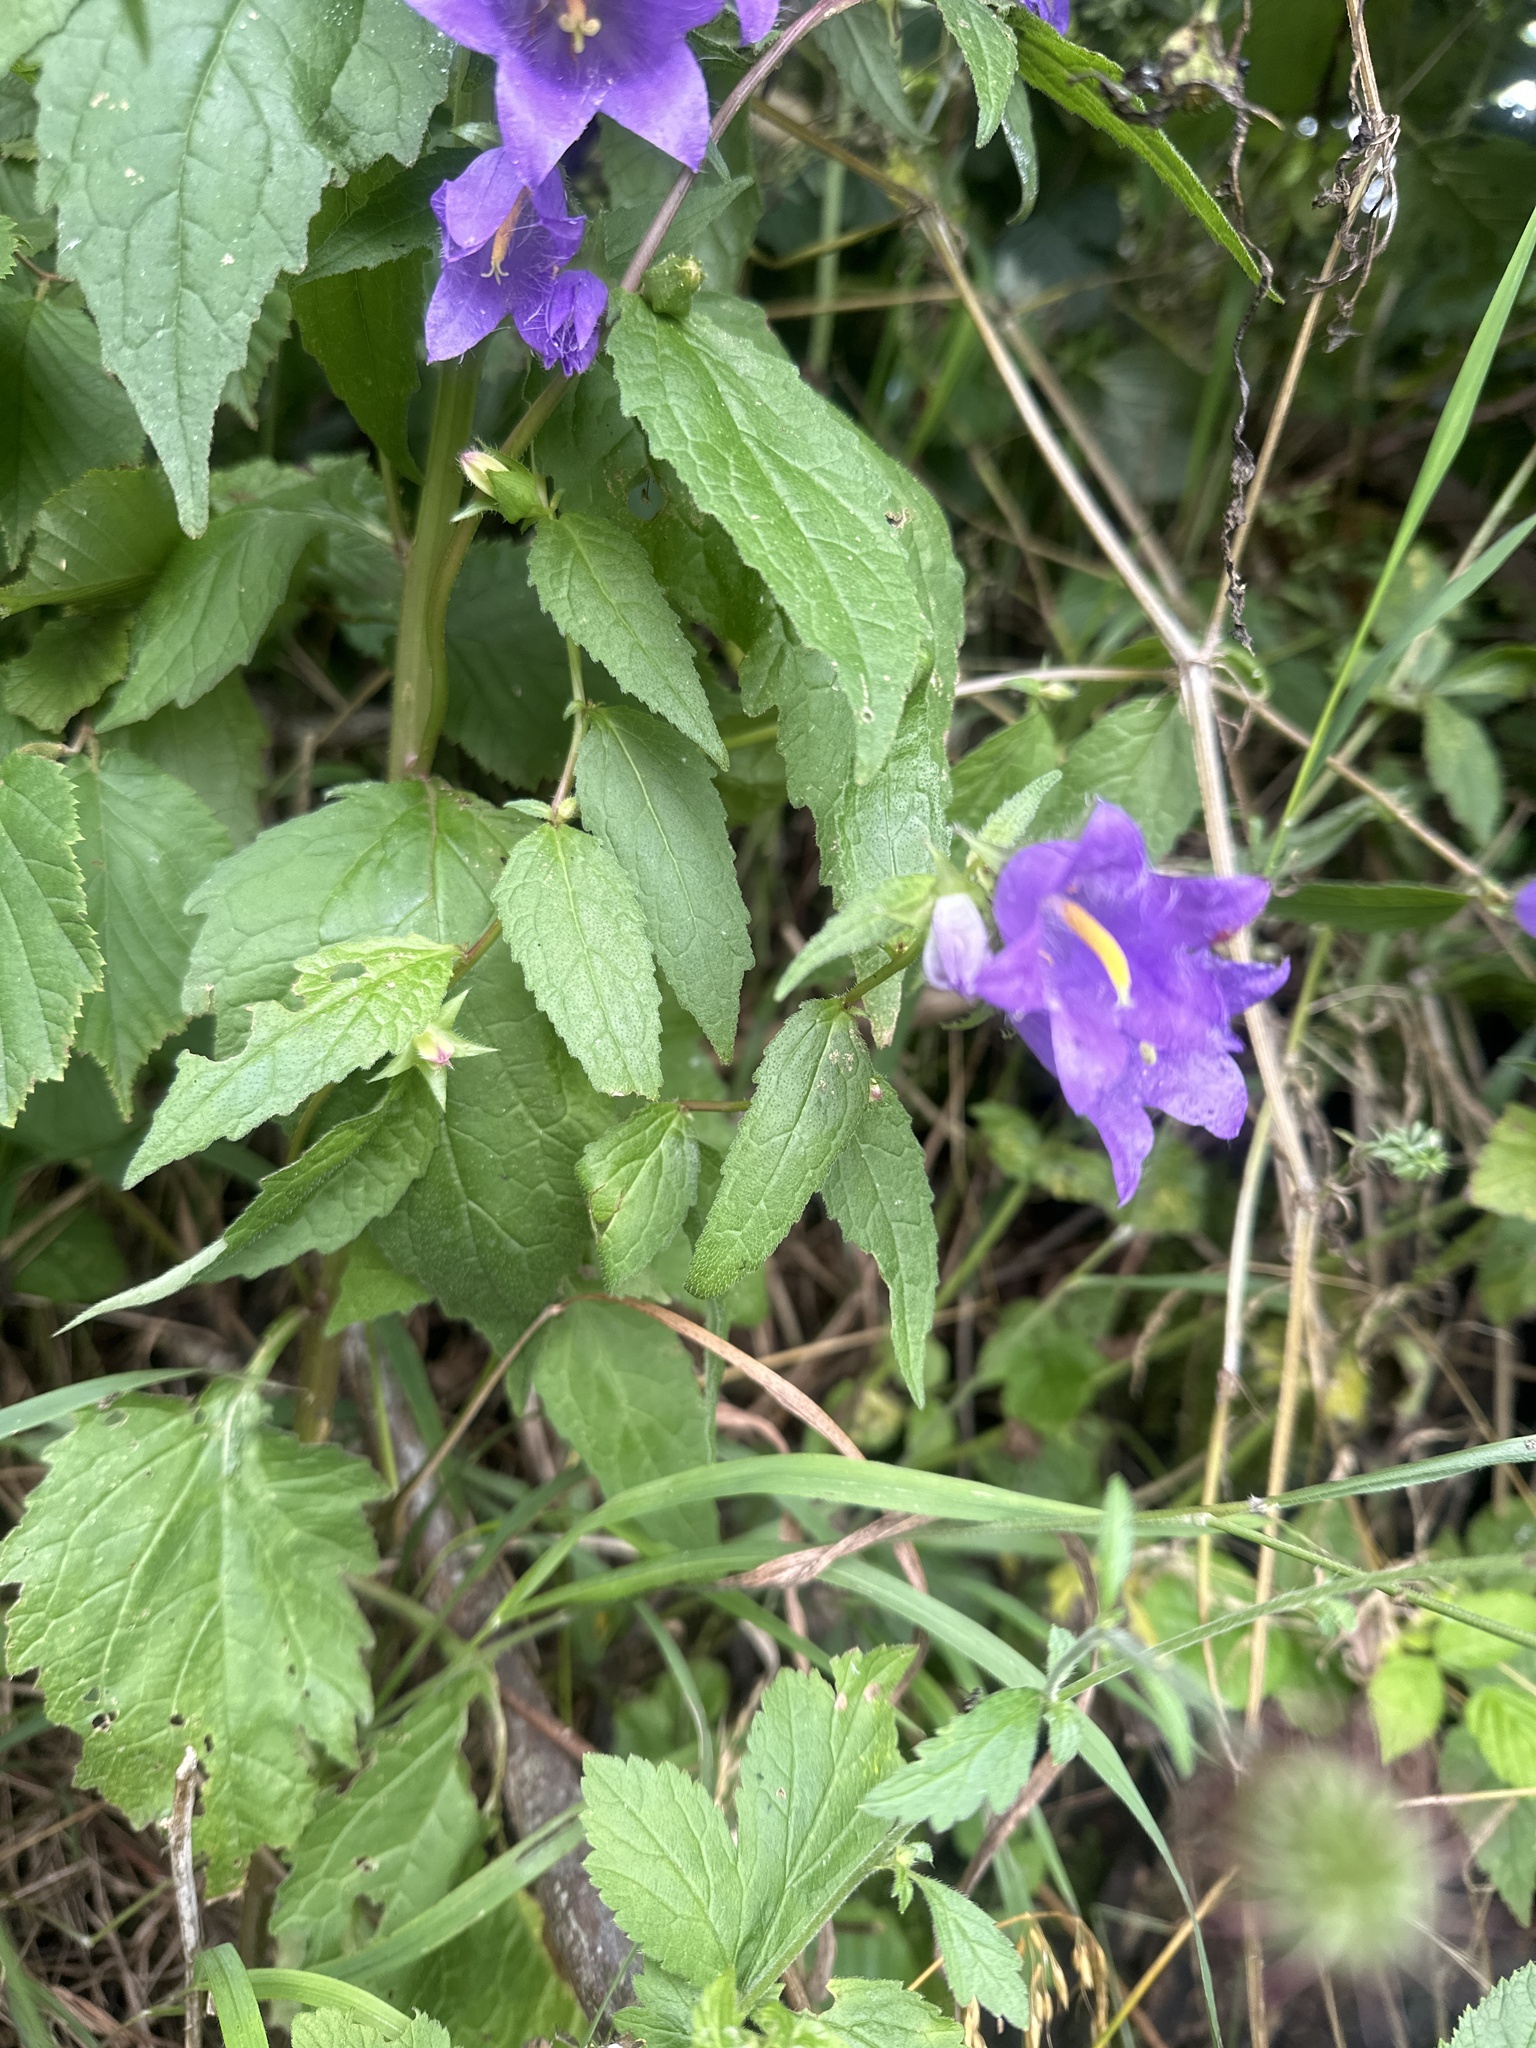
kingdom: Plantae
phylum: Tracheophyta
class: Magnoliopsida
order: Asterales
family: Campanulaceae
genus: Campanula
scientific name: Campanula trachelium
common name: Nettle-leaved bellflower
